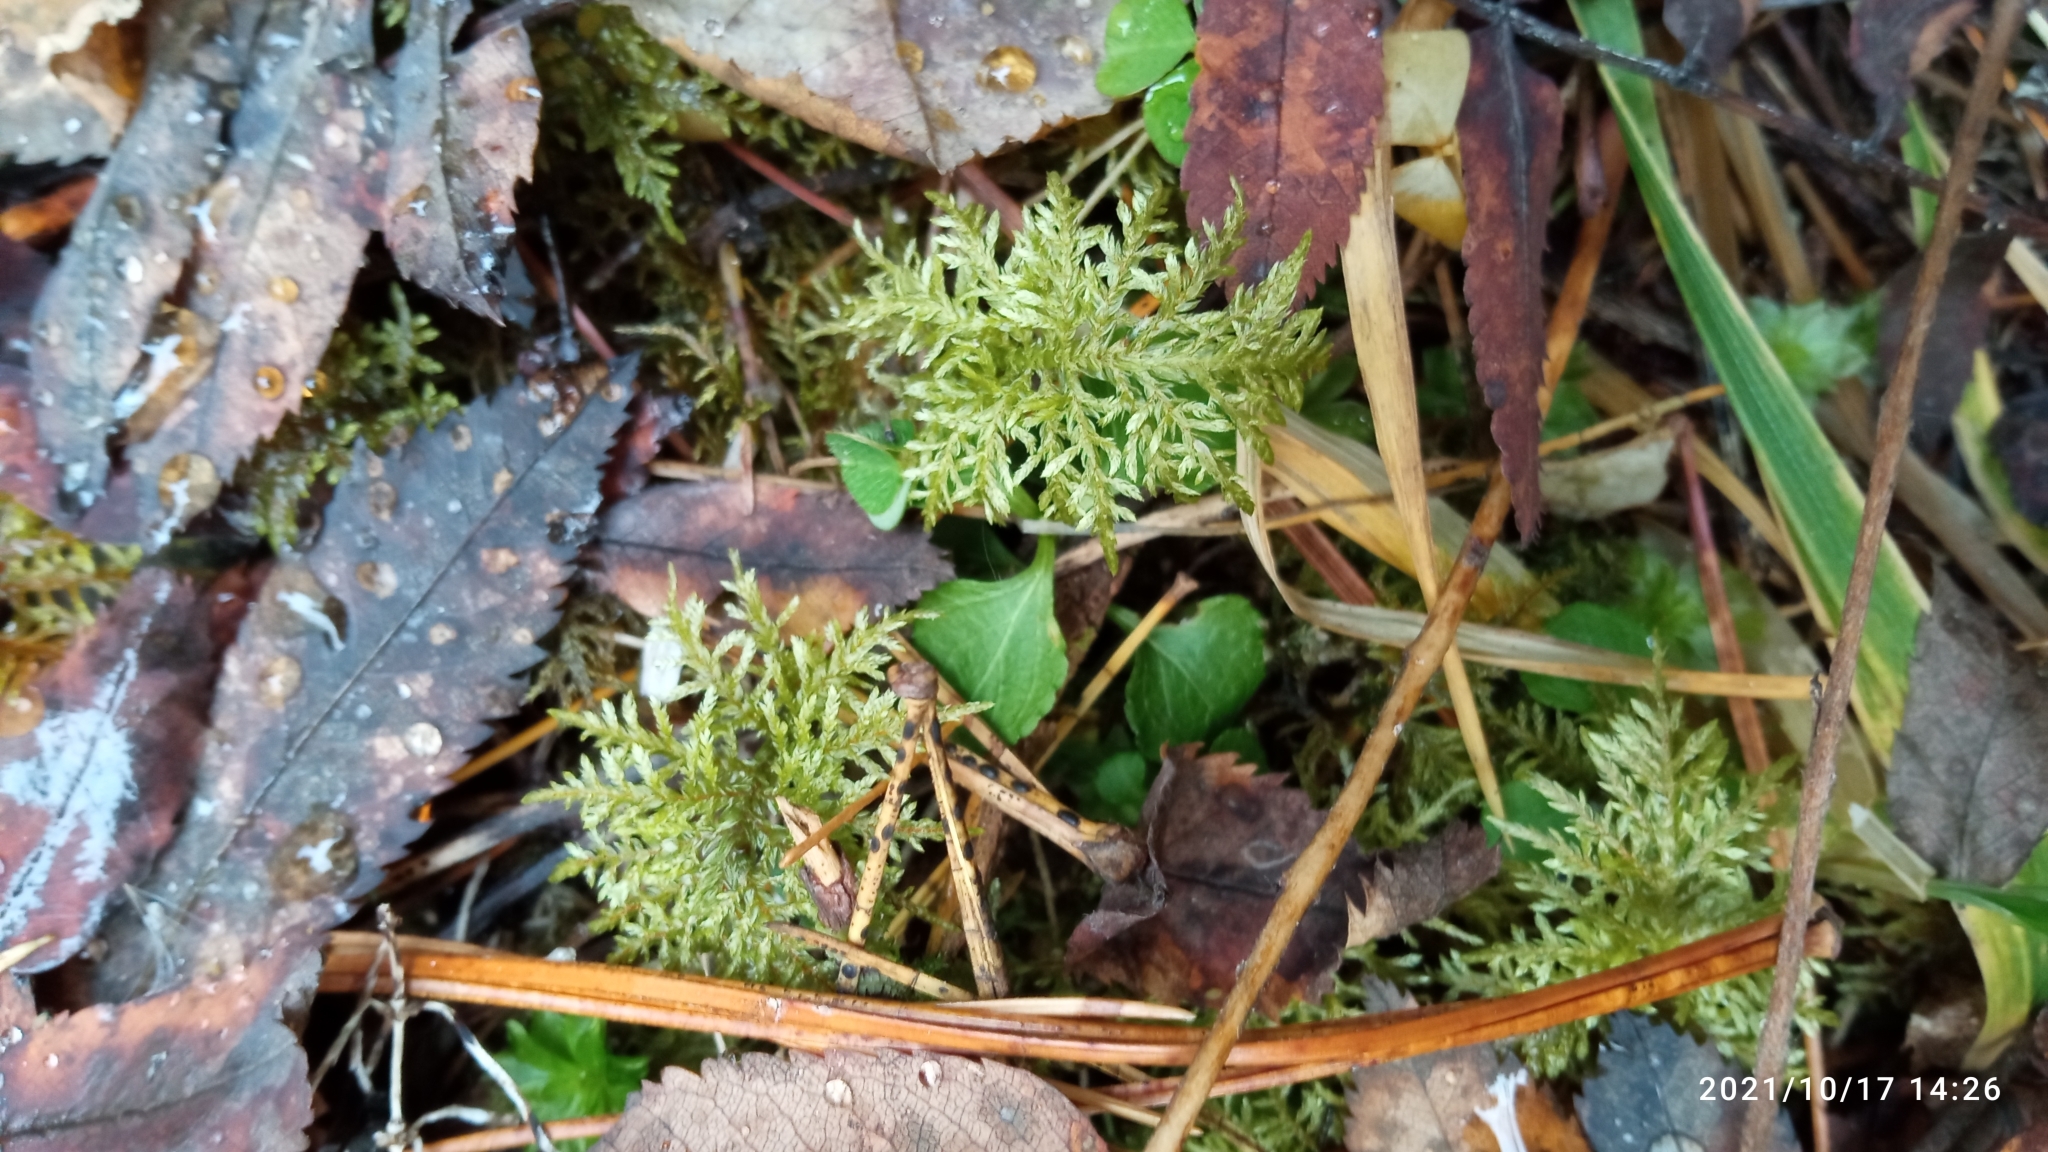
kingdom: Plantae
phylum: Bryophyta
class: Bryopsida
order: Hypnales
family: Hylocomiaceae
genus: Hylocomium
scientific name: Hylocomium splendens
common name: Stairstep moss
